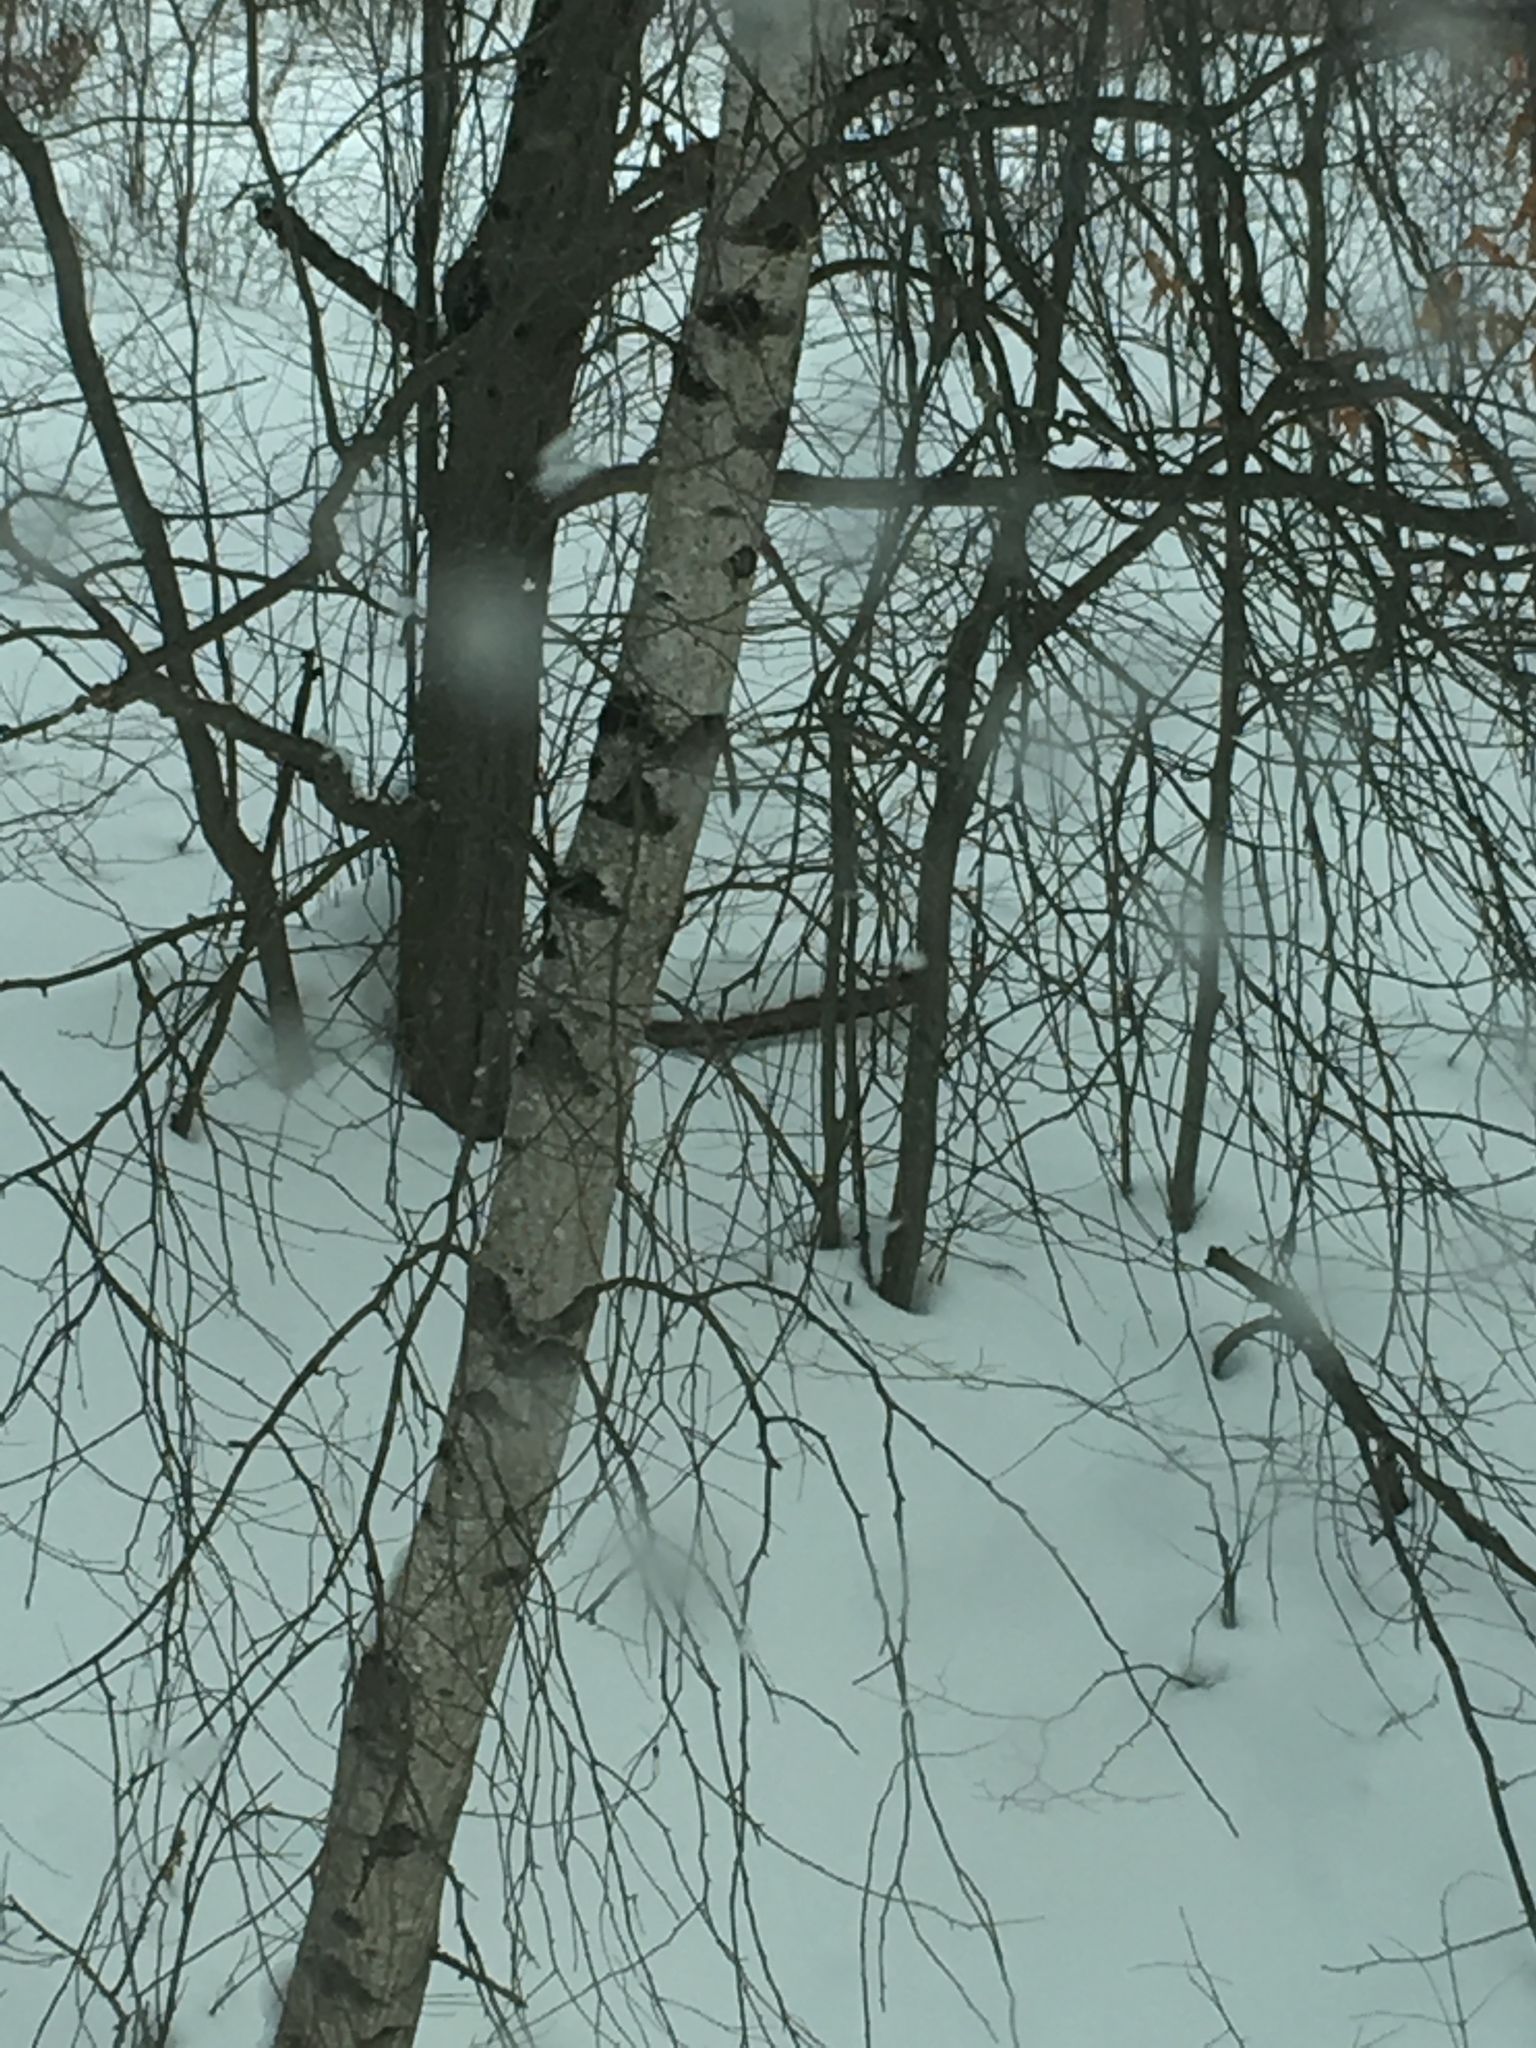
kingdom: Plantae
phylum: Tracheophyta
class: Magnoliopsida
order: Fagales
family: Betulaceae
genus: Betula
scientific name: Betula populifolia
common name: Fire birch
